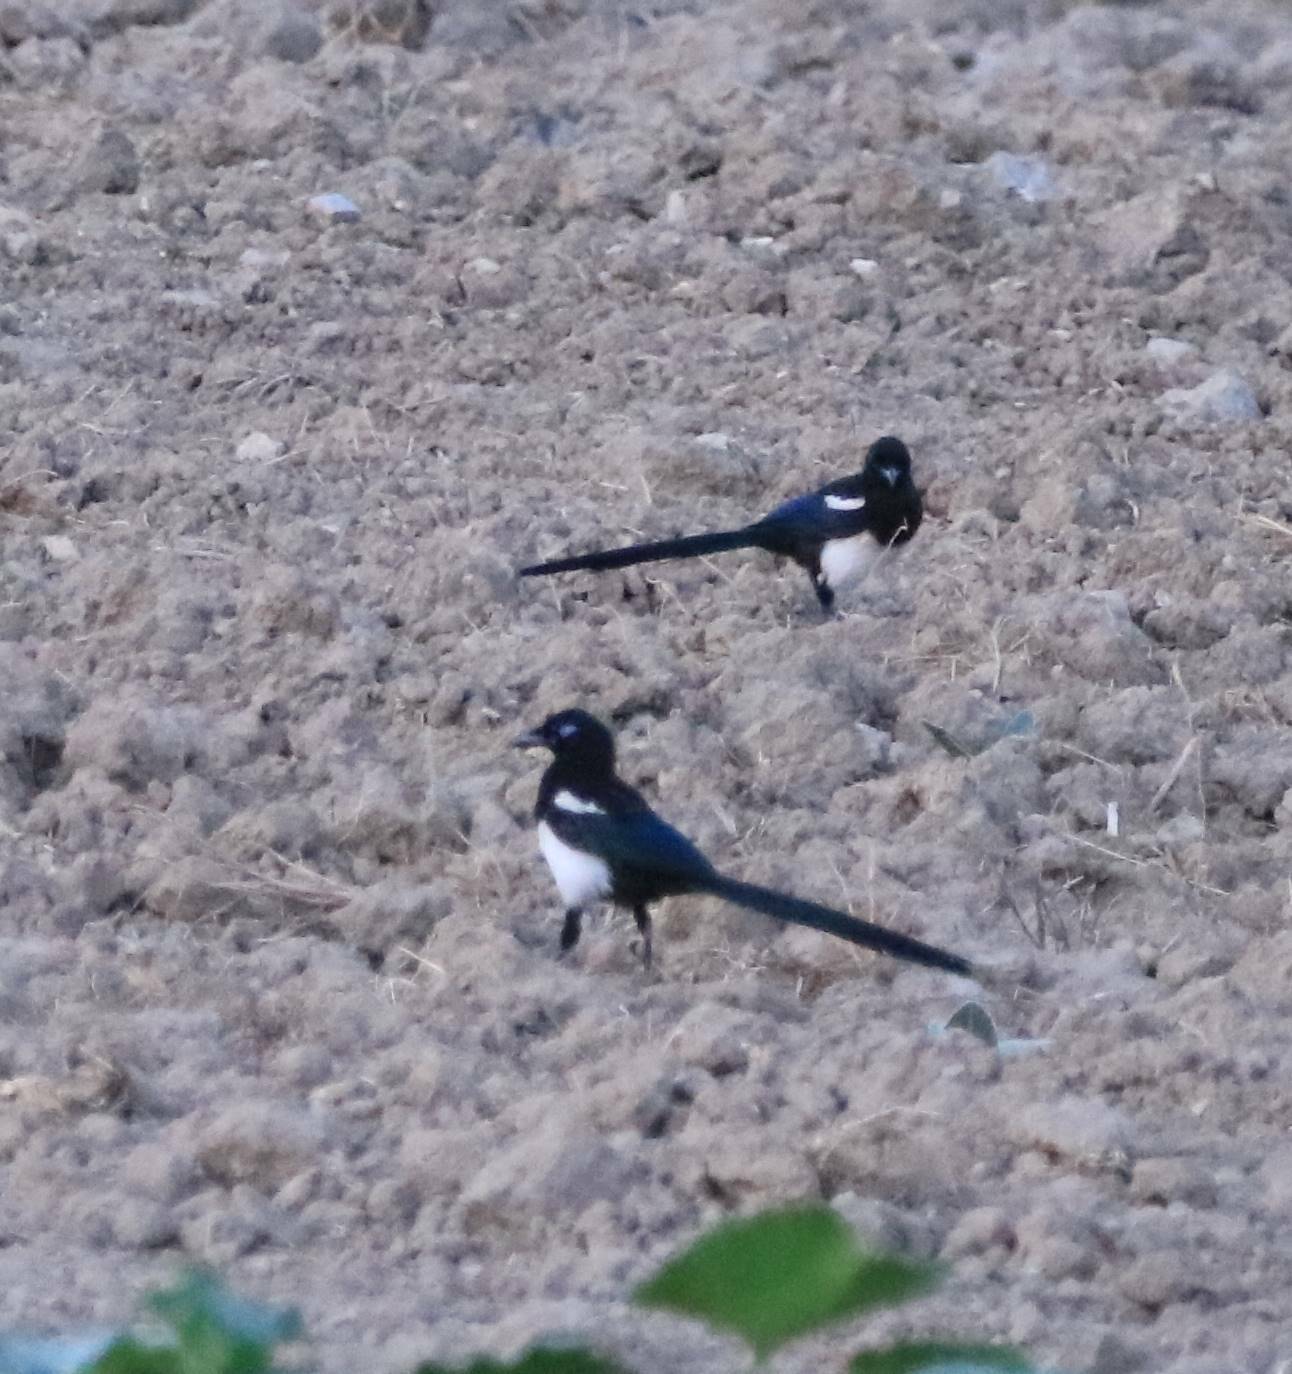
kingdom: Animalia
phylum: Chordata
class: Aves
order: Passeriformes
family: Corvidae
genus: Pica
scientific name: Pica mauritanica
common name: Maghreb magpie
